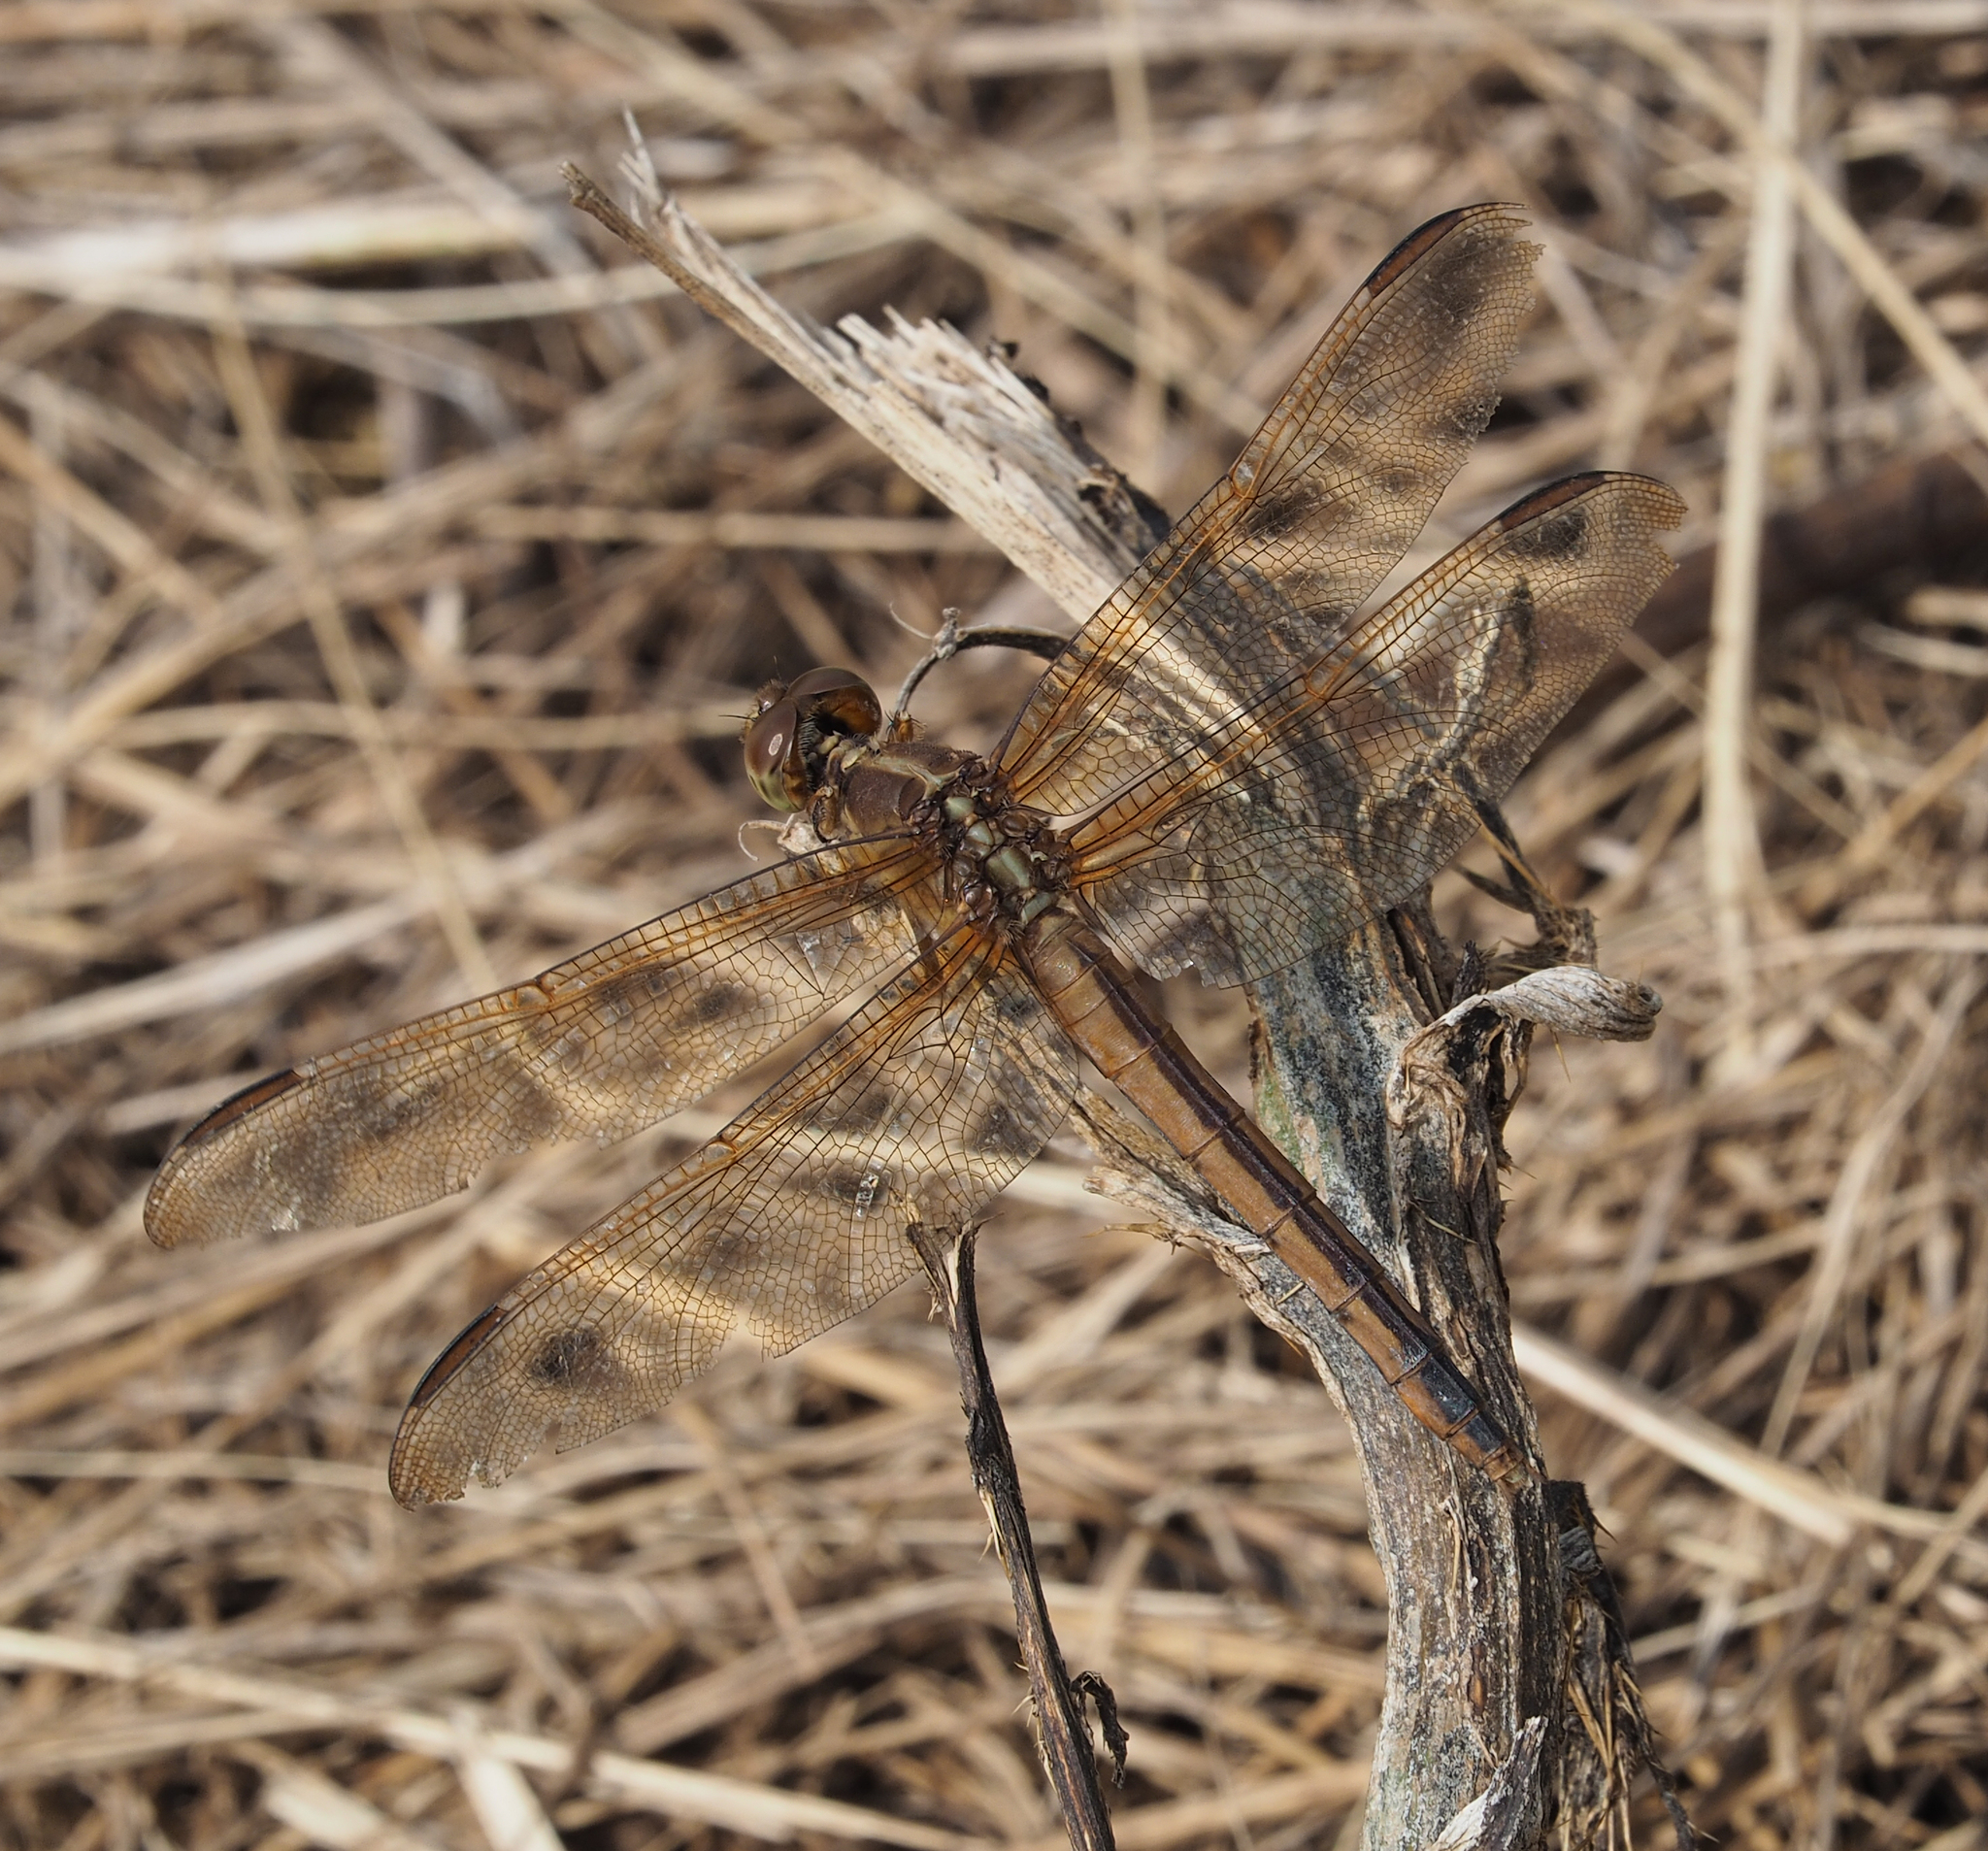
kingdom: Animalia
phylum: Arthropoda
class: Insecta
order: Odonata
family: Libellulidae
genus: Libellula
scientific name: Libellula needhami
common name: Needham's skimmer
